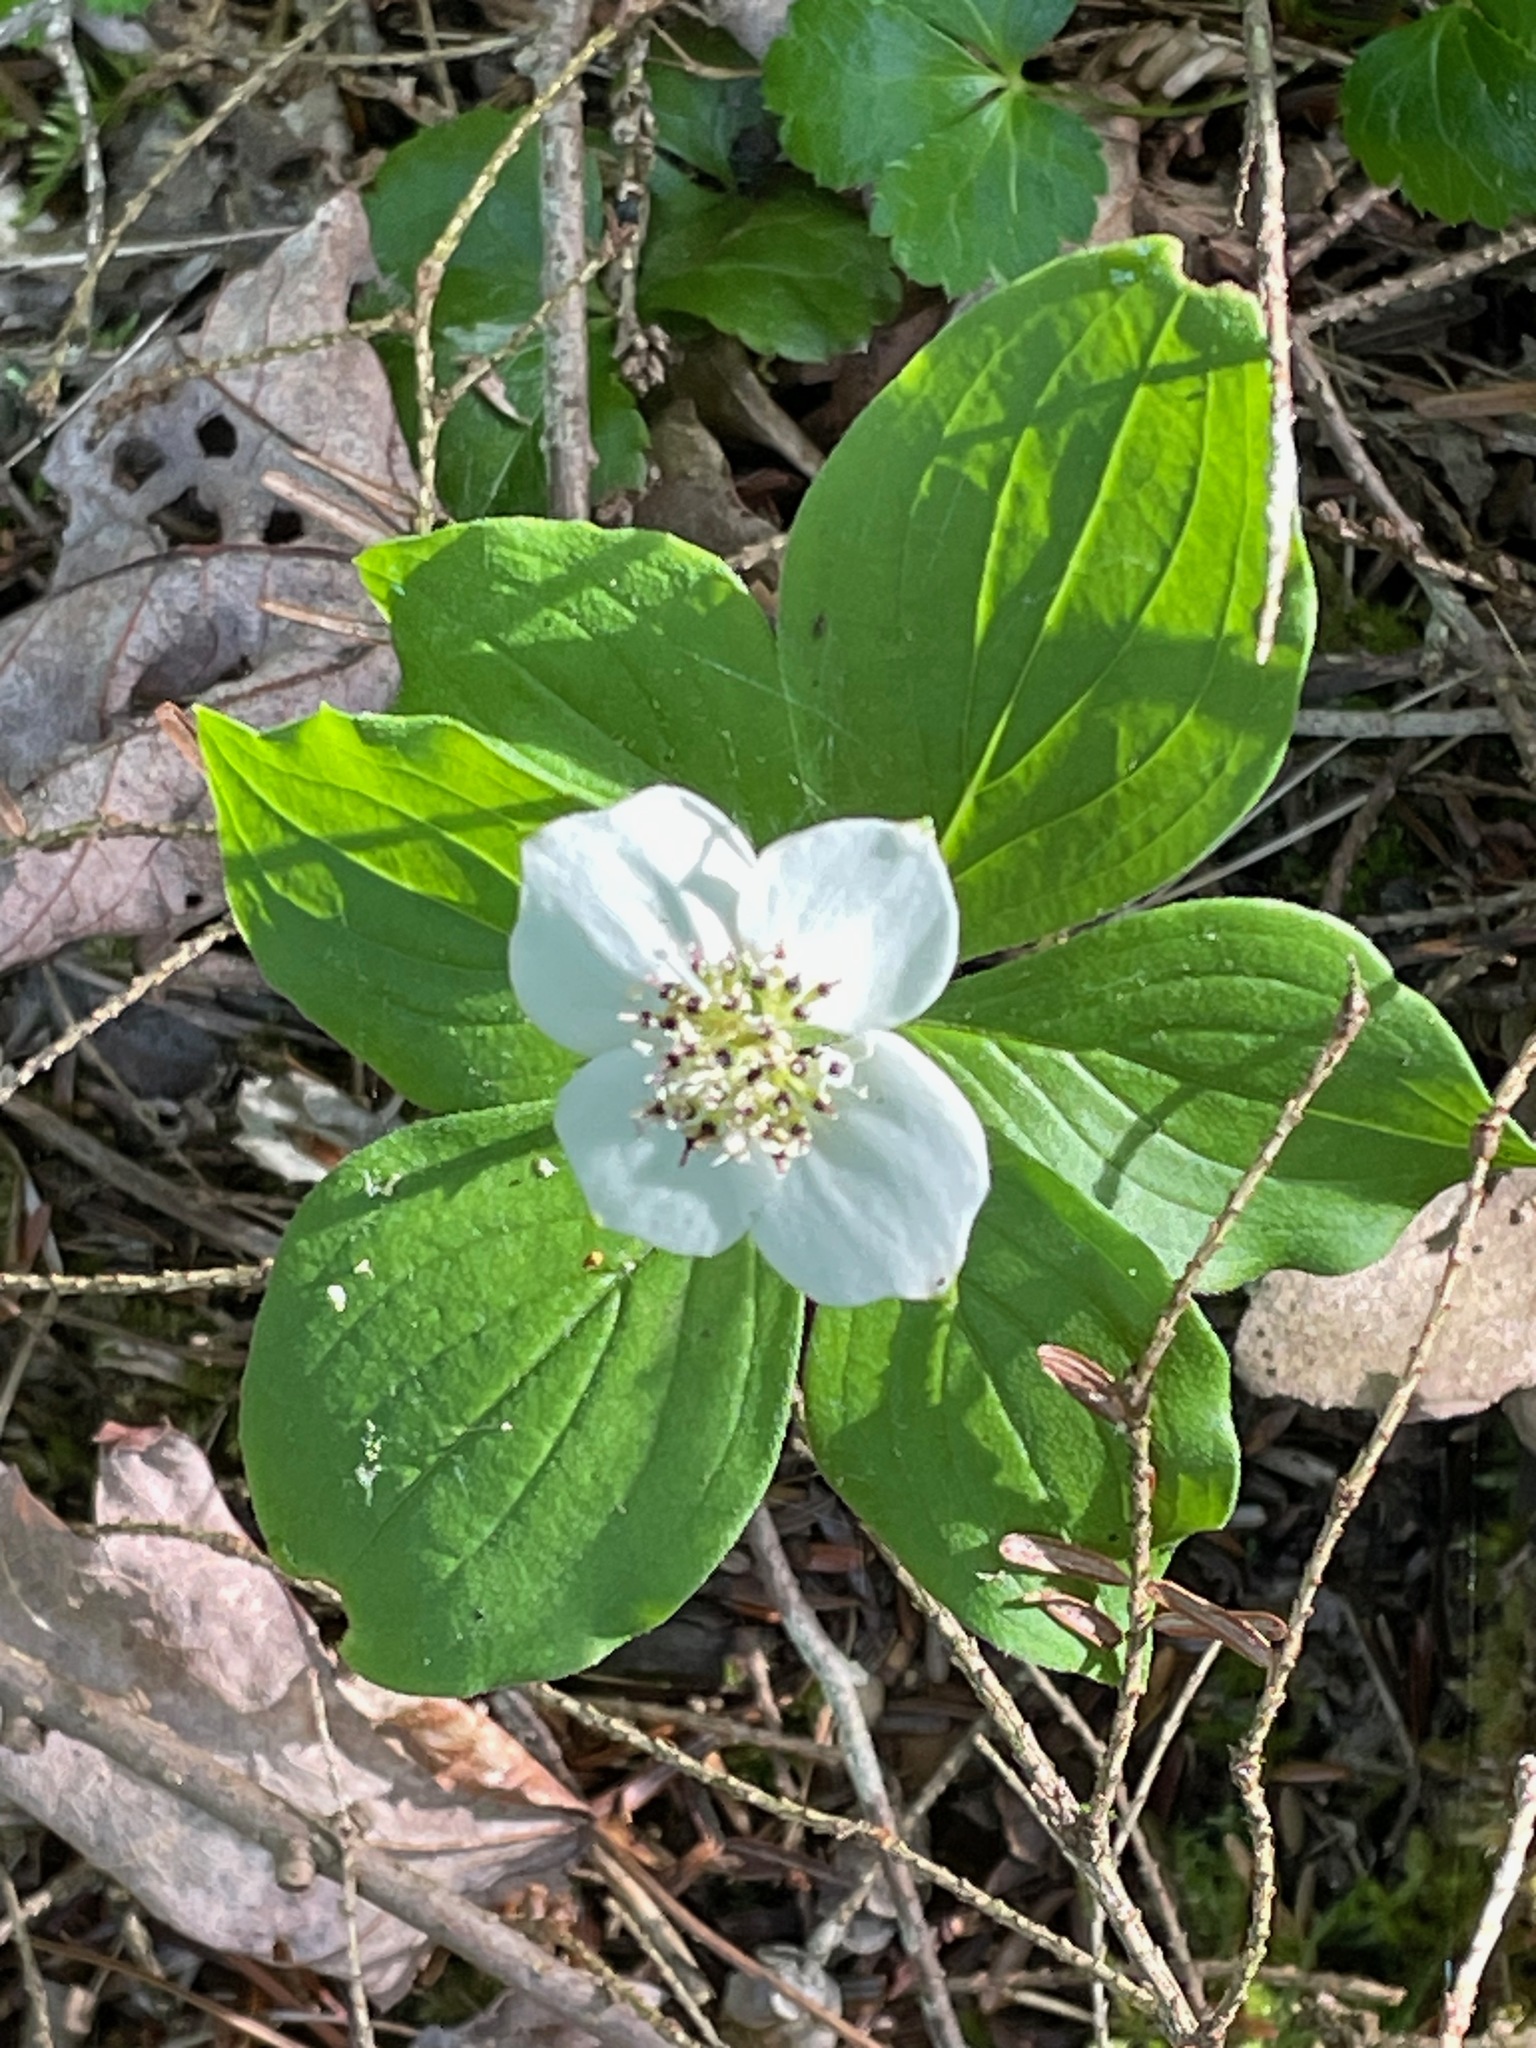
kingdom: Plantae
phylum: Tracheophyta
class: Magnoliopsida
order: Cornales
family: Cornaceae
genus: Cornus
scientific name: Cornus canadensis
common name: Creeping dogwood
